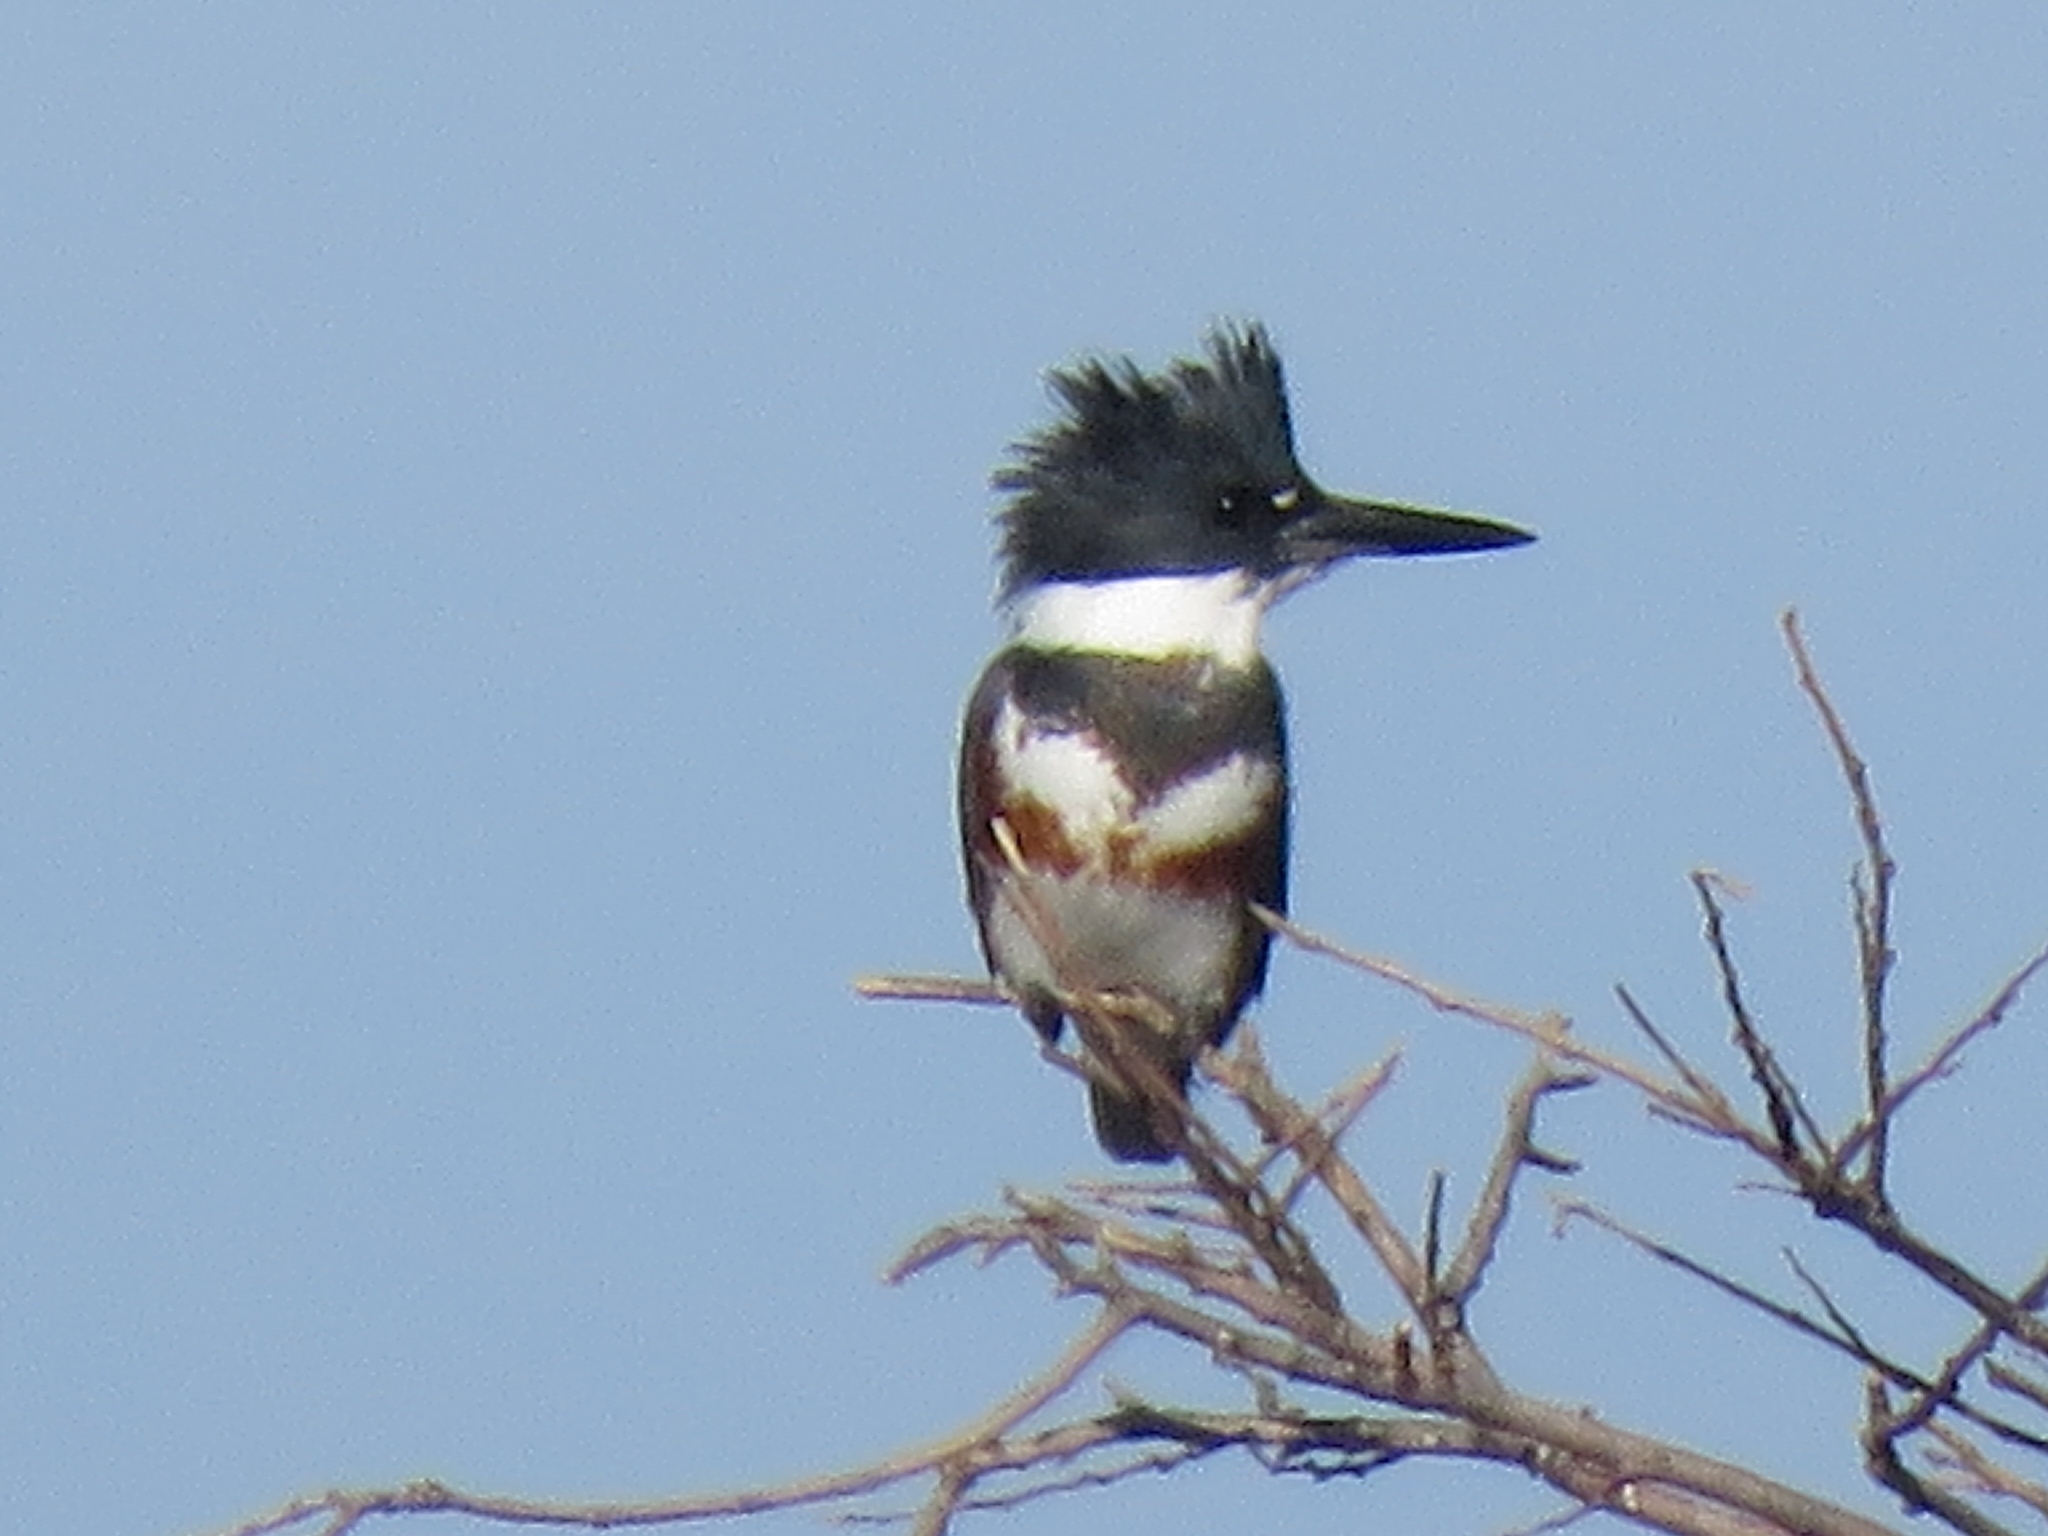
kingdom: Animalia
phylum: Chordata
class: Aves
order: Coraciiformes
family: Alcedinidae
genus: Megaceryle
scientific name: Megaceryle alcyon
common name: Belted kingfisher
